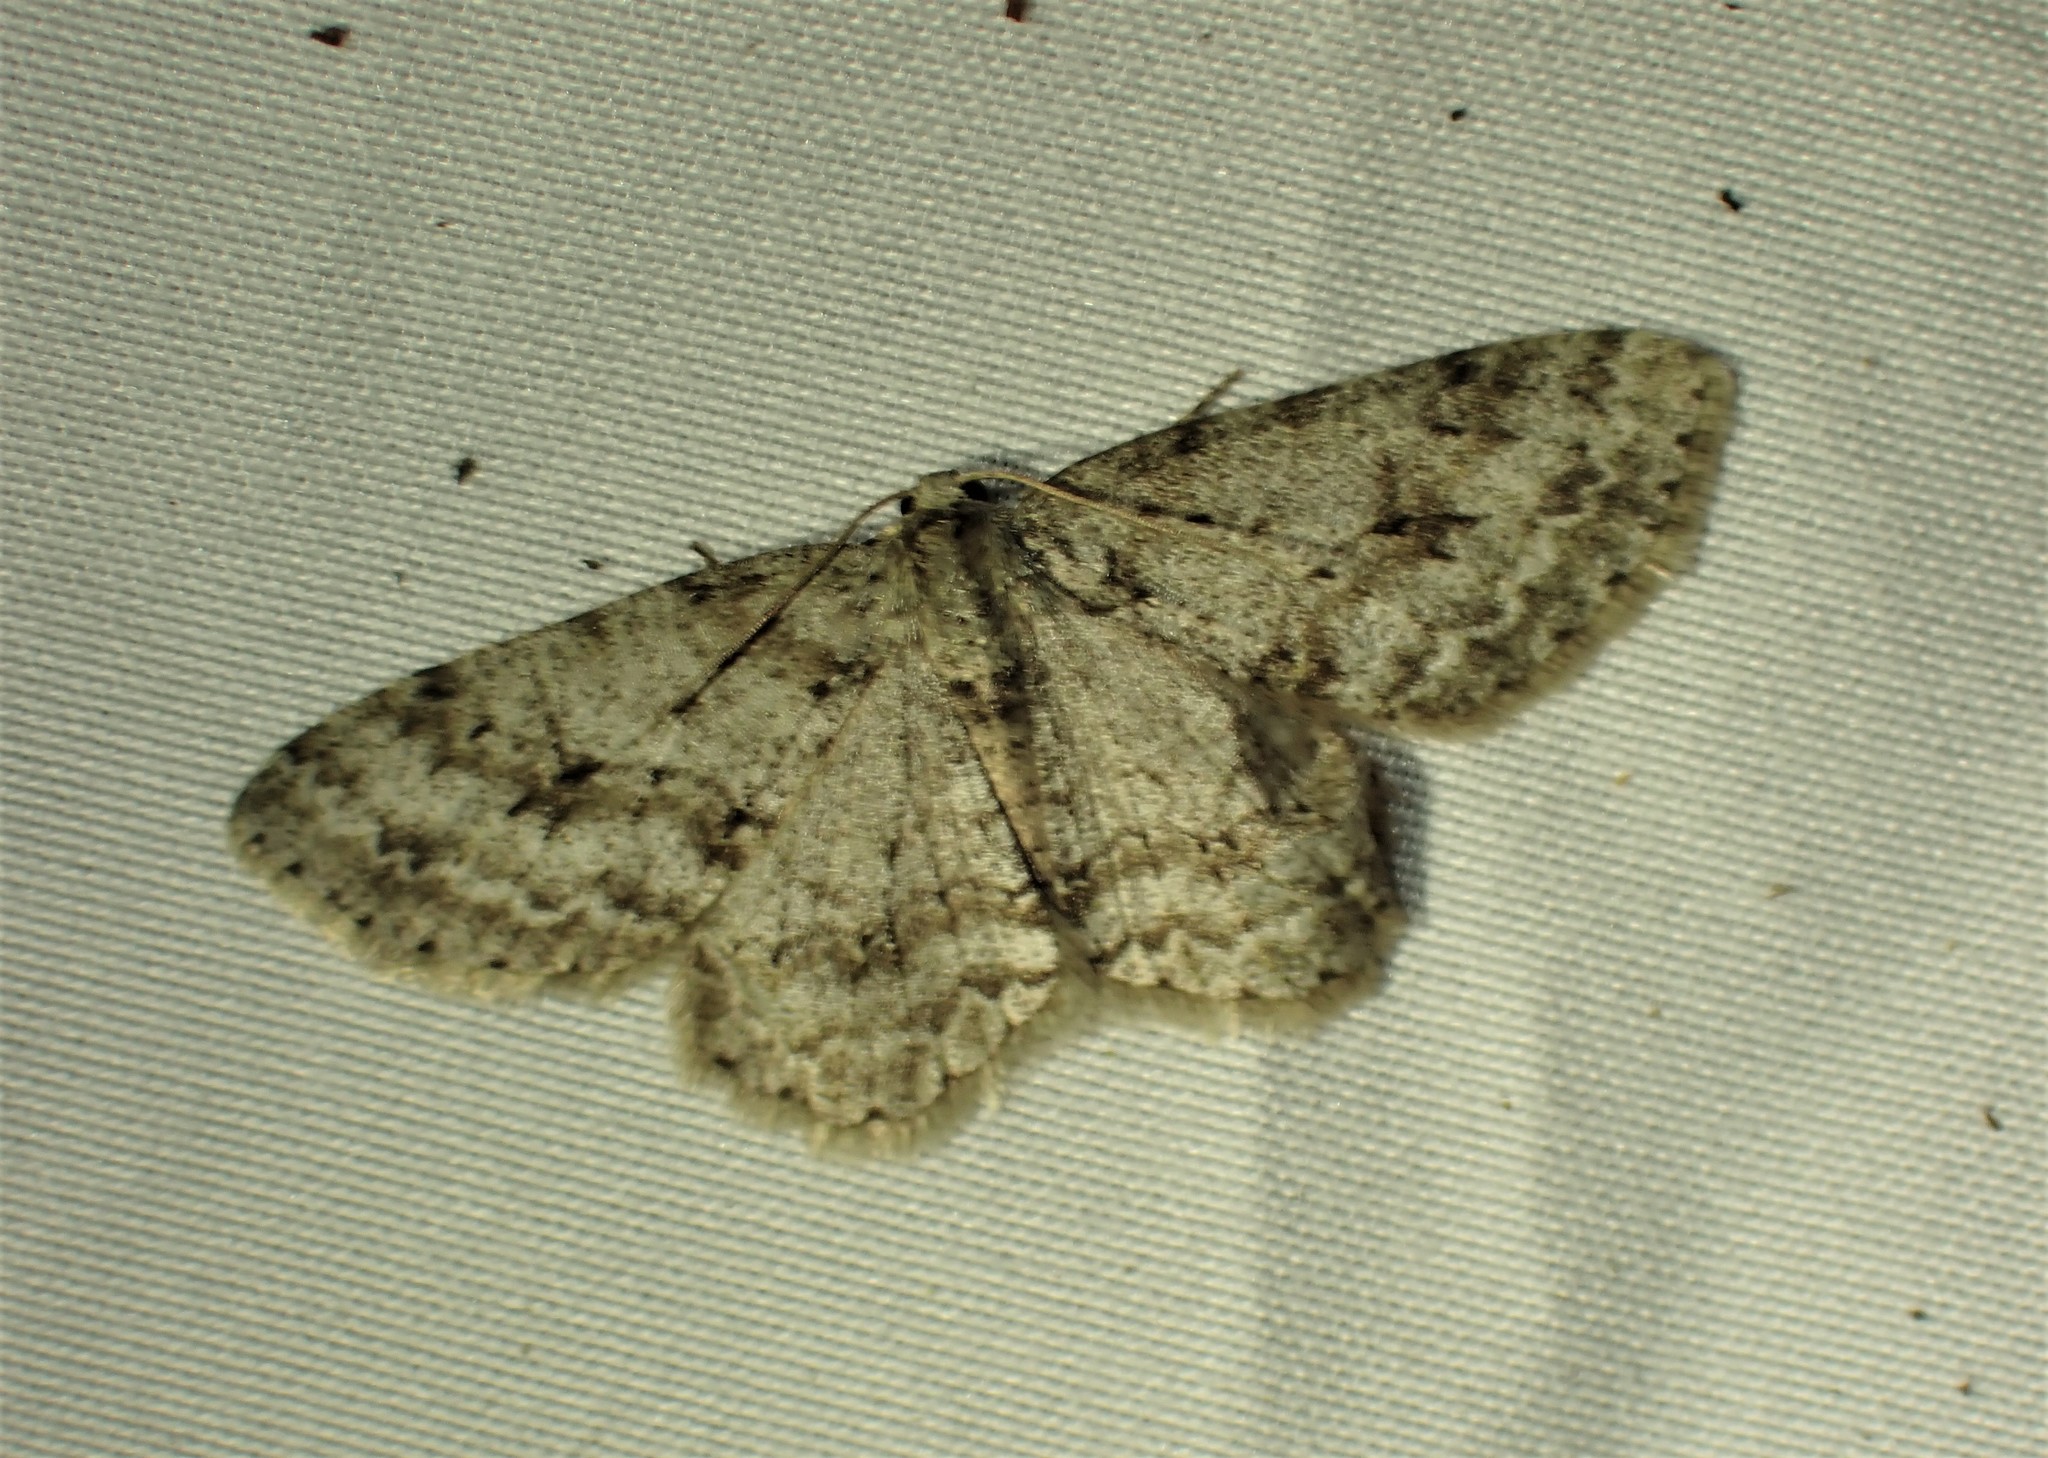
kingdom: Animalia
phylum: Arthropoda
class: Insecta
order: Lepidoptera
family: Geometridae
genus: Ectropis
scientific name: Ectropis crepuscularia
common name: Engrailed
